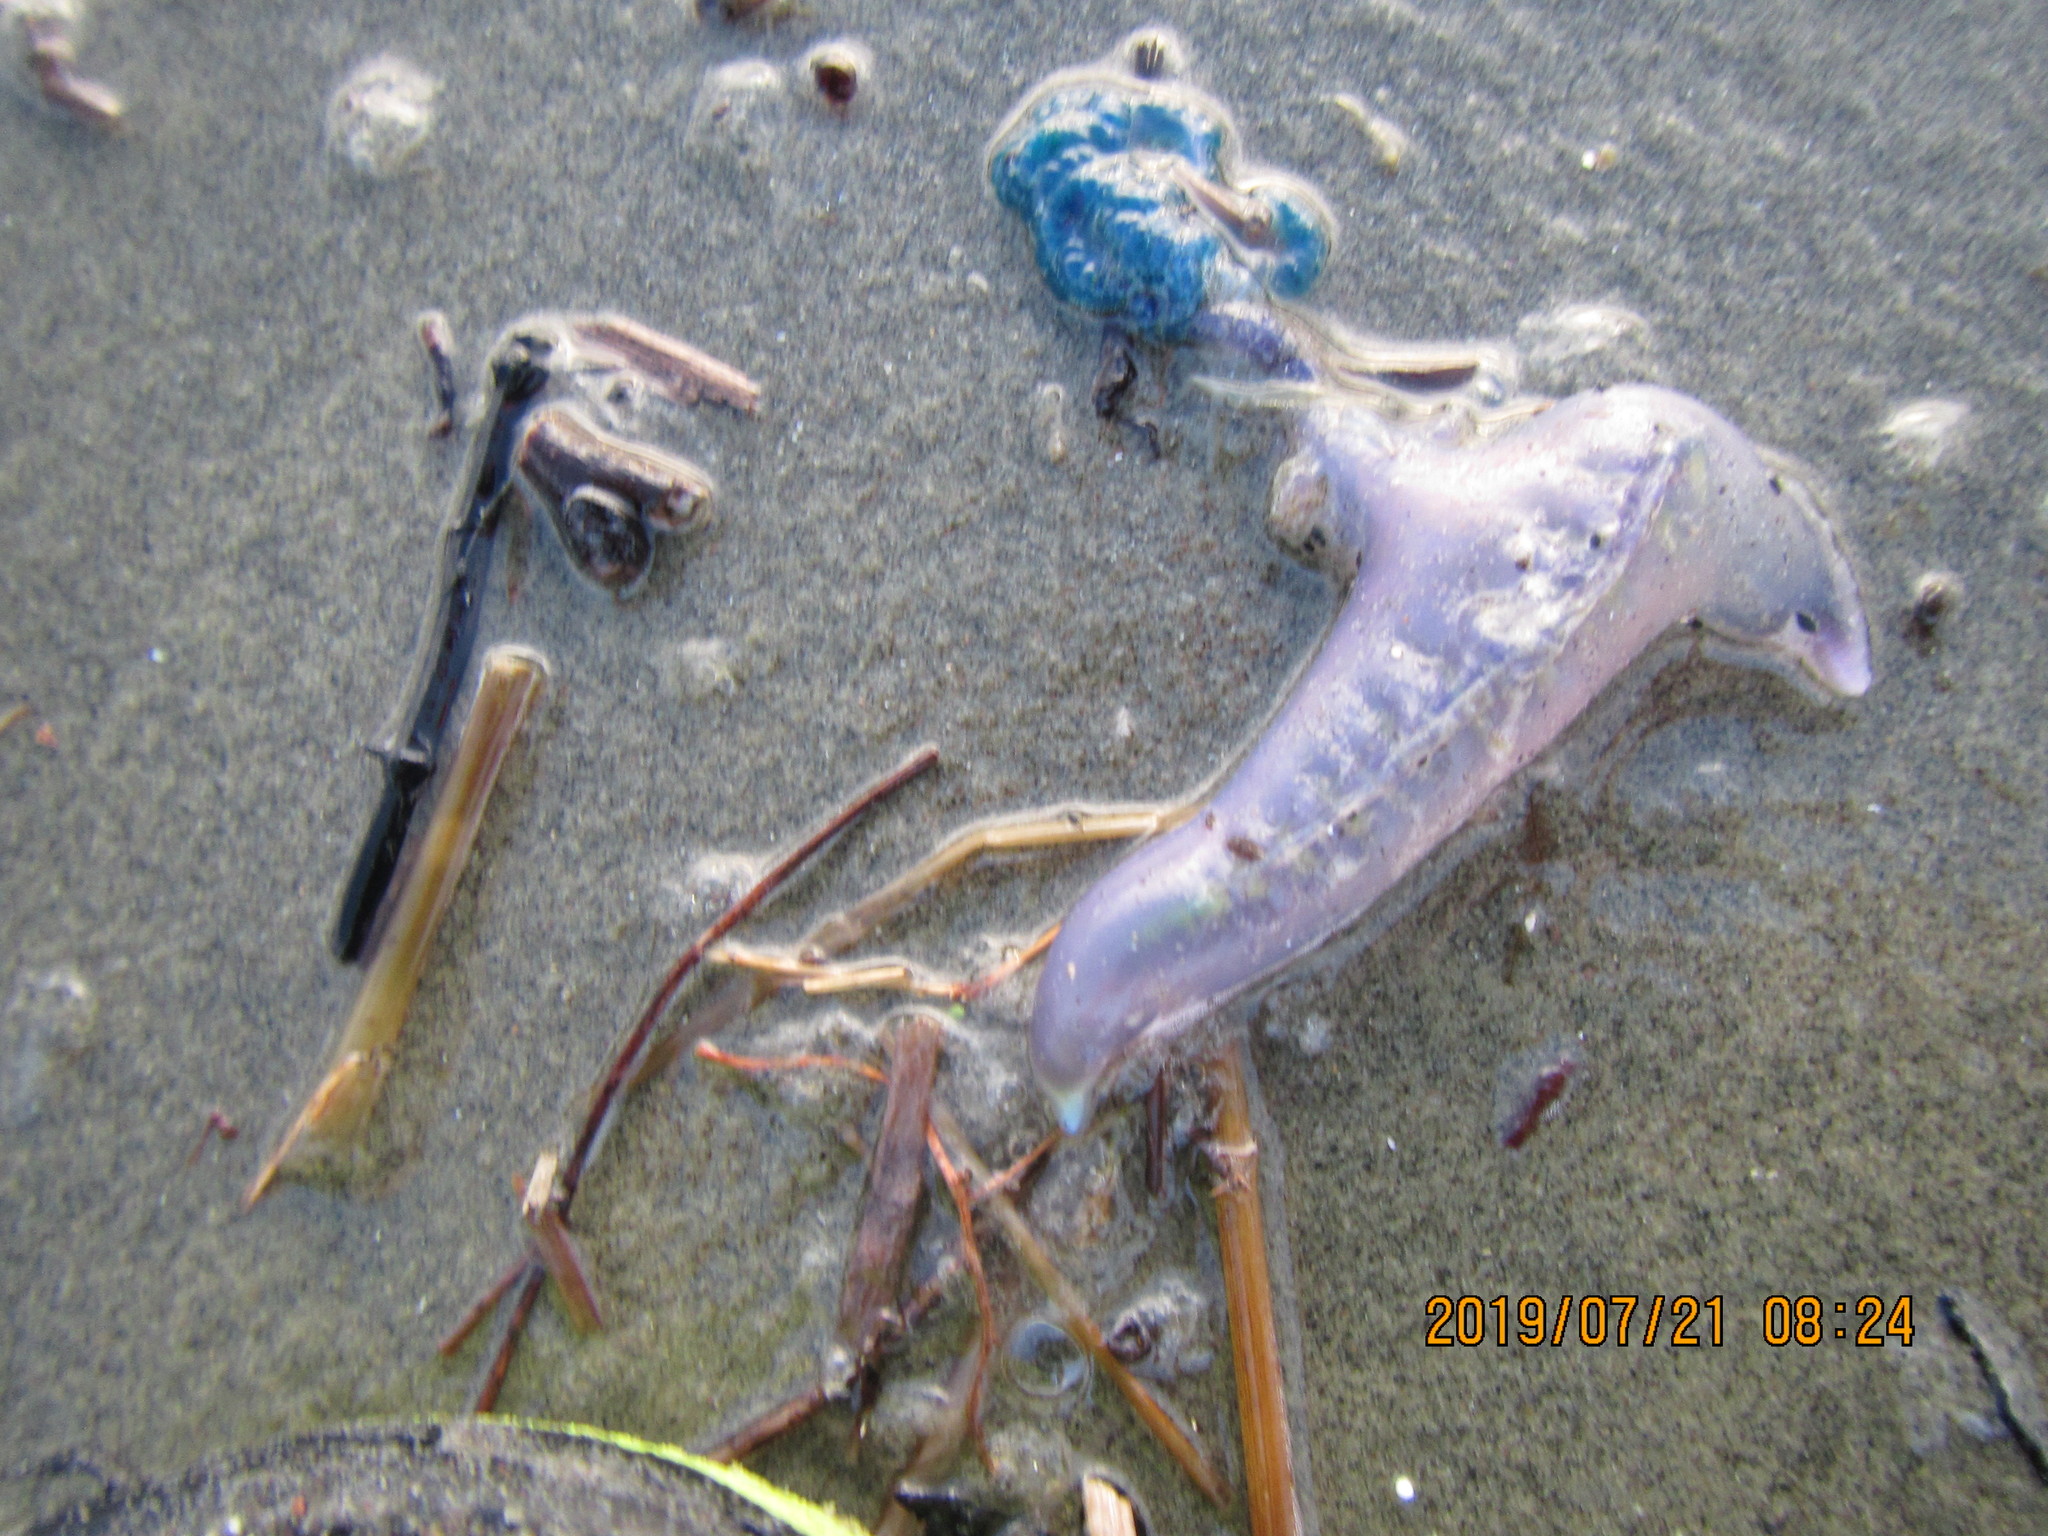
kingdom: Animalia
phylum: Cnidaria
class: Hydrozoa
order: Siphonophorae
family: Physaliidae
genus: Physalia
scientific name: Physalia physalis
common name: Portuguese man-of-war
